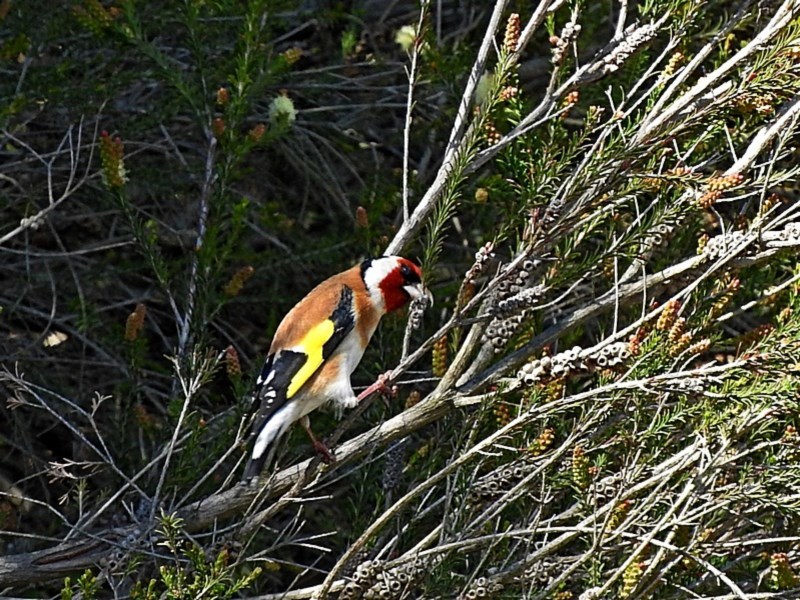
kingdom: Animalia
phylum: Chordata
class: Aves
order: Passeriformes
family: Fringillidae
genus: Carduelis
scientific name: Carduelis carduelis
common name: European goldfinch
